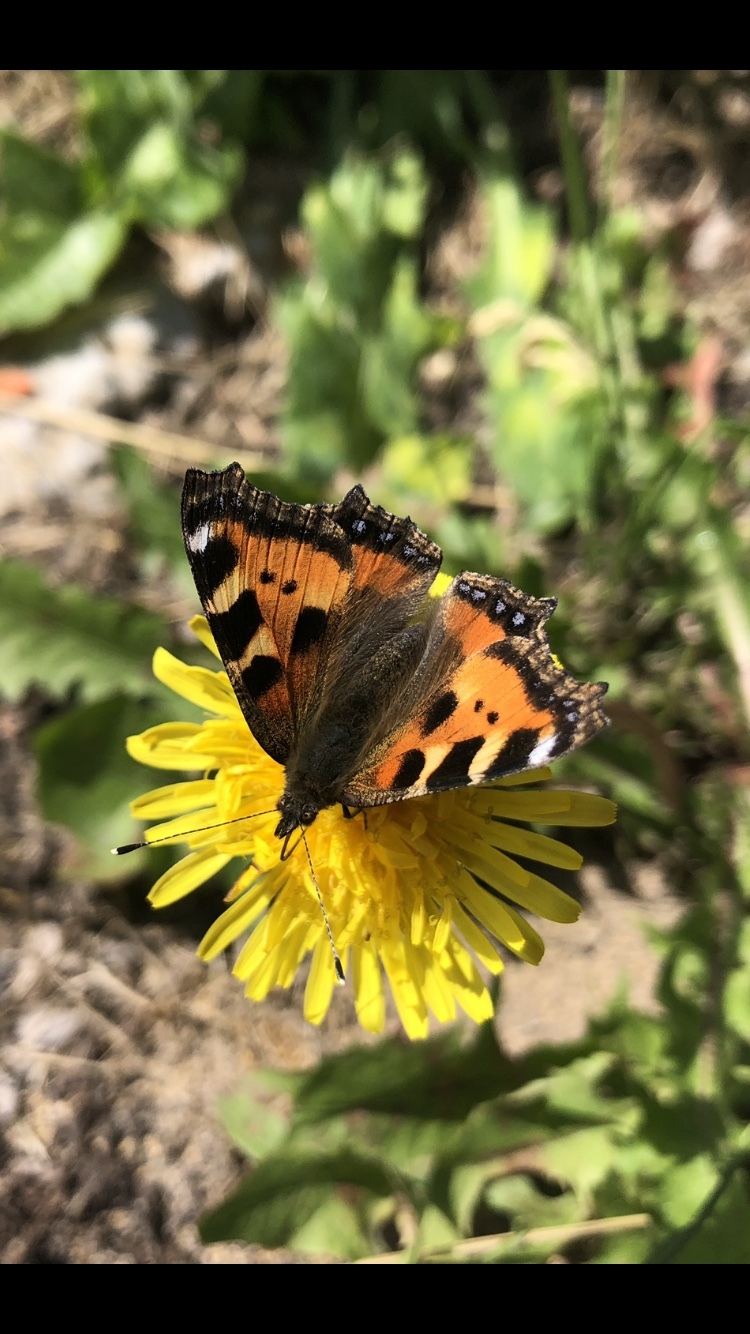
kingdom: Animalia
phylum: Arthropoda
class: Insecta
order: Lepidoptera
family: Nymphalidae
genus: Aglais
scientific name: Aglais urticae
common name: Small tortoiseshell
